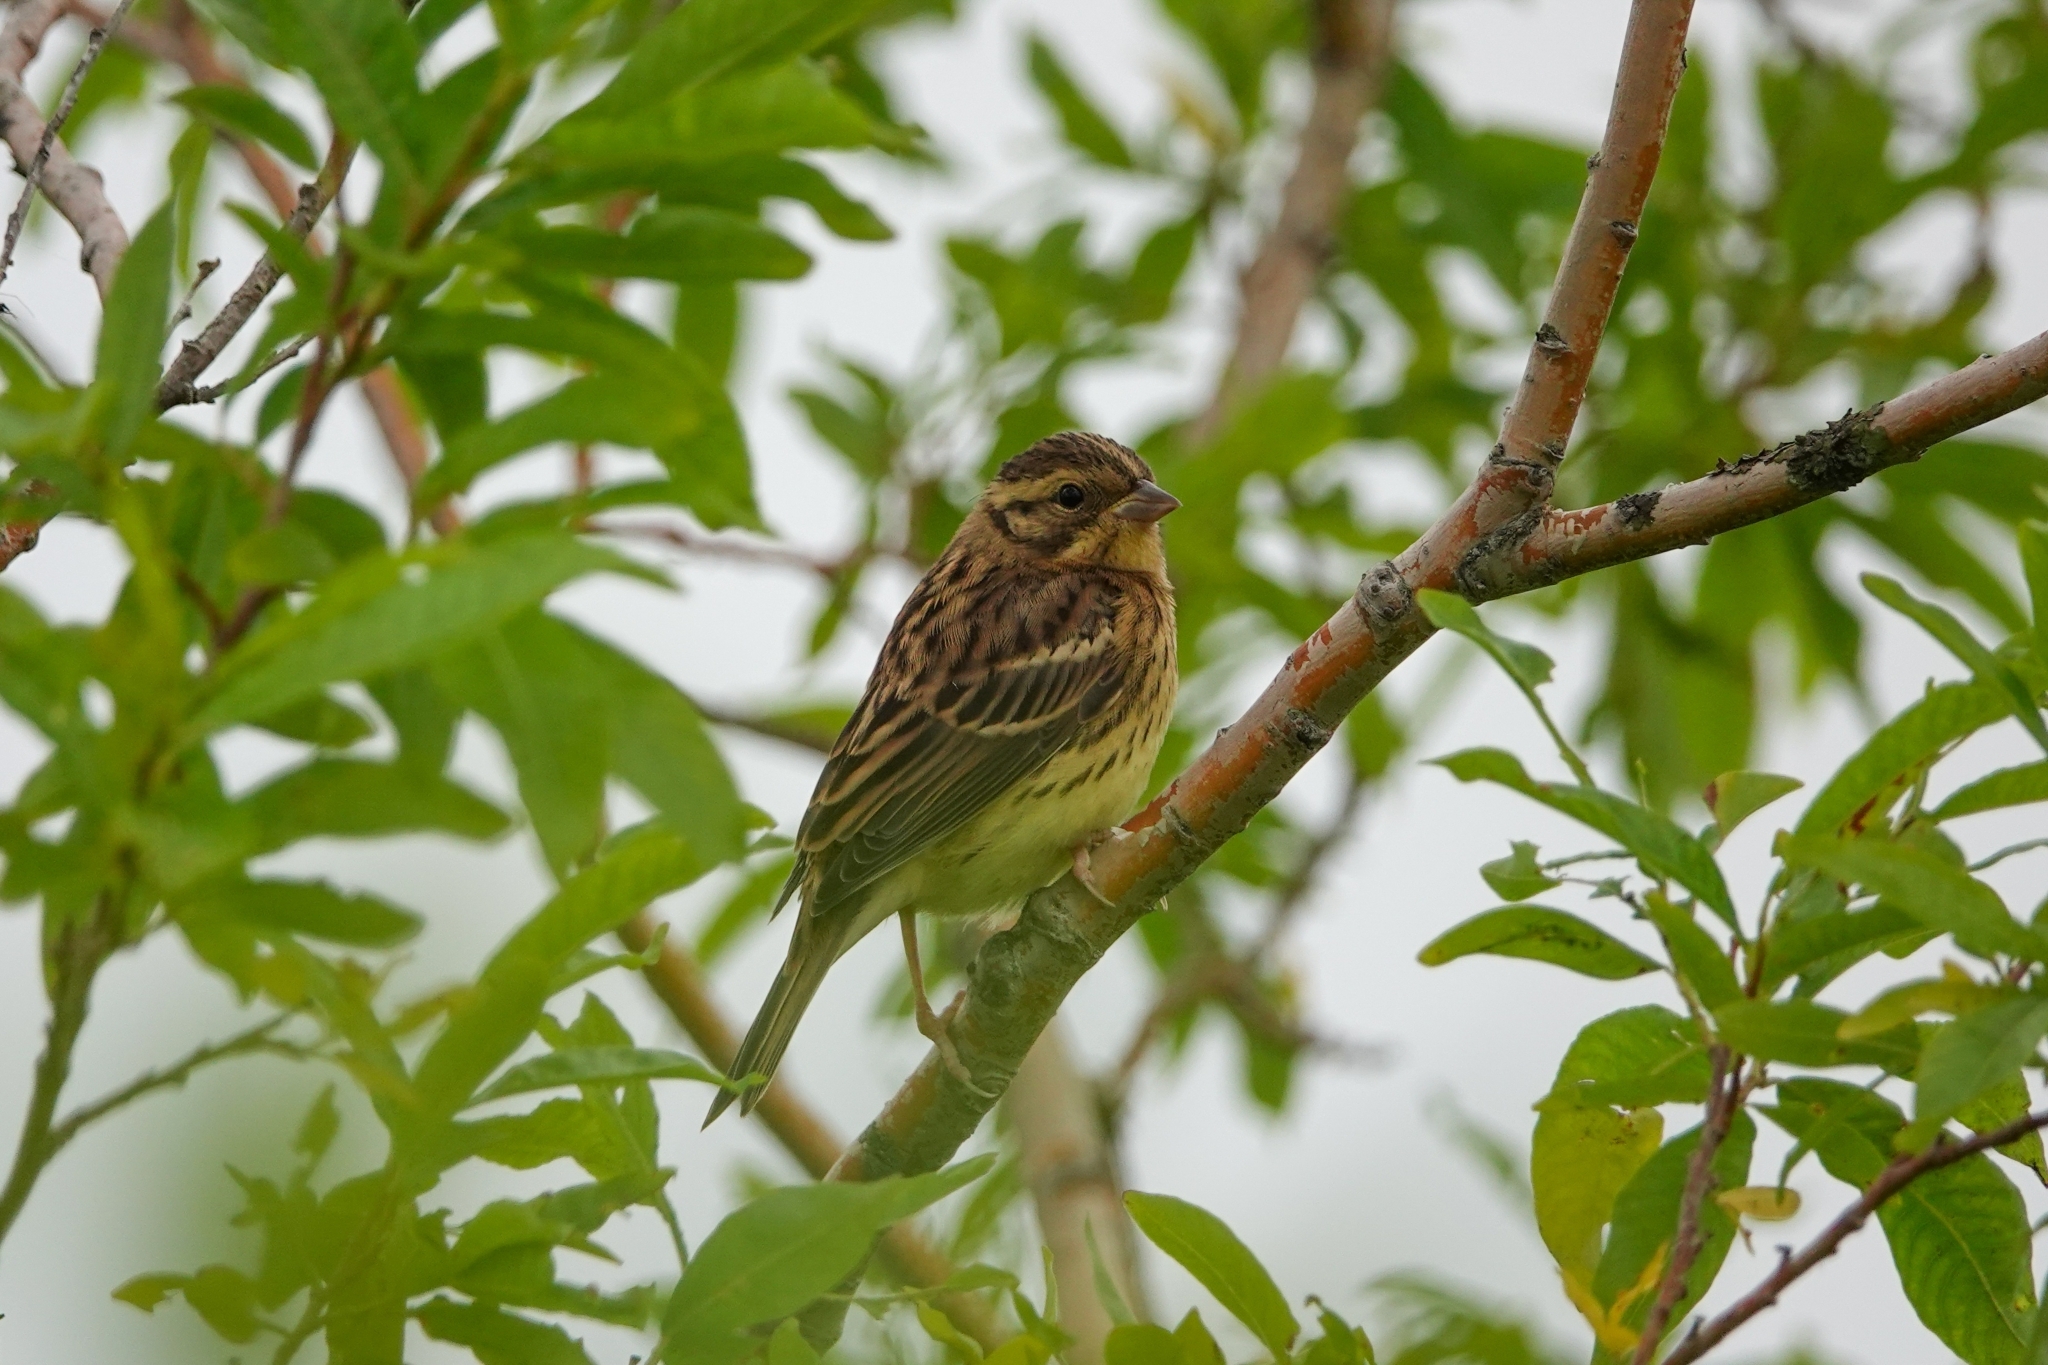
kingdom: Animalia
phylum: Chordata
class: Aves
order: Passeriformes
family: Emberizidae
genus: Emberiza
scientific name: Emberiza aureola
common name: Yellow-breasted bunting
